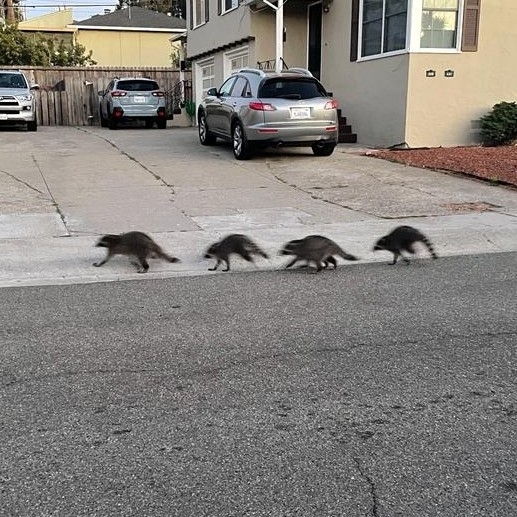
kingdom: Animalia
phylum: Chordata
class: Mammalia
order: Carnivora
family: Procyonidae
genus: Procyon
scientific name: Procyon lotor
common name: Raccoon
